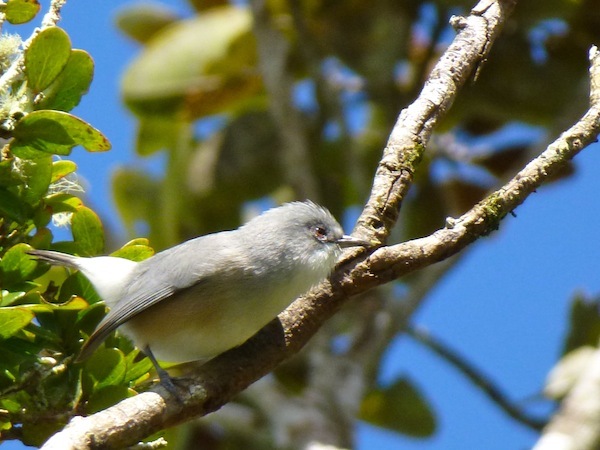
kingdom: Animalia
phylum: Chordata
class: Aves
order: Passeriformes
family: Zosteropidae
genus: Zosterops
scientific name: Zosterops mauritianus
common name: Mauritius gray white-eye
